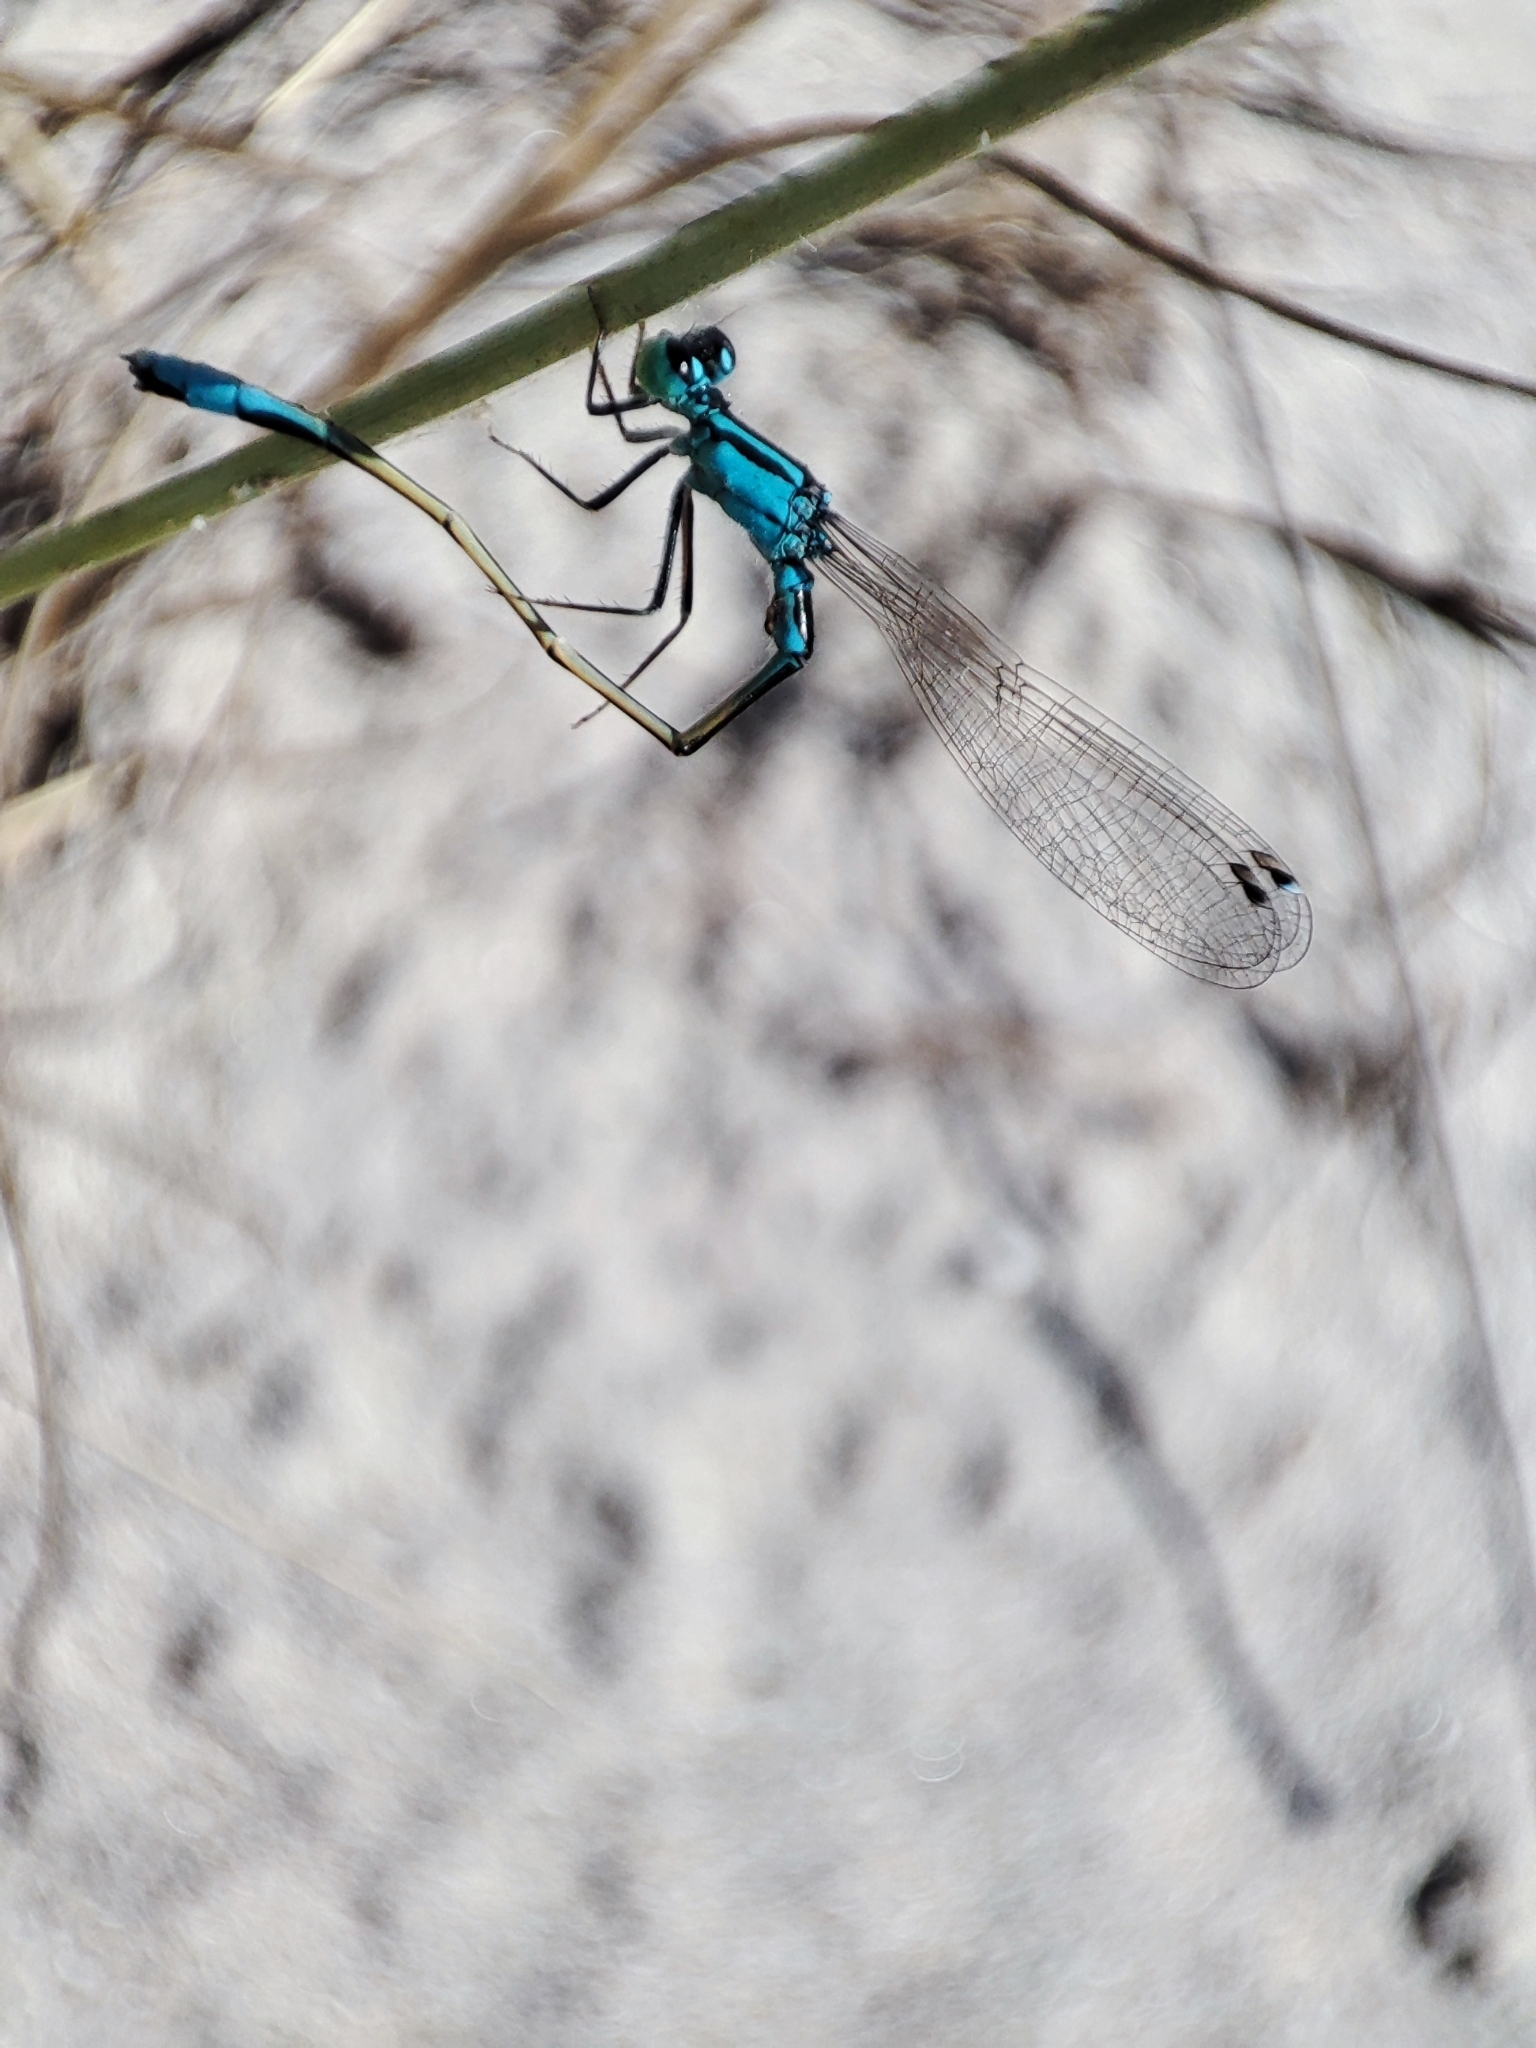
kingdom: Animalia
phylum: Arthropoda
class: Insecta
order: Odonata
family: Coenagrionidae
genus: Ischnura
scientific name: Ischnura elegans
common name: Blue-tailed damselfly
